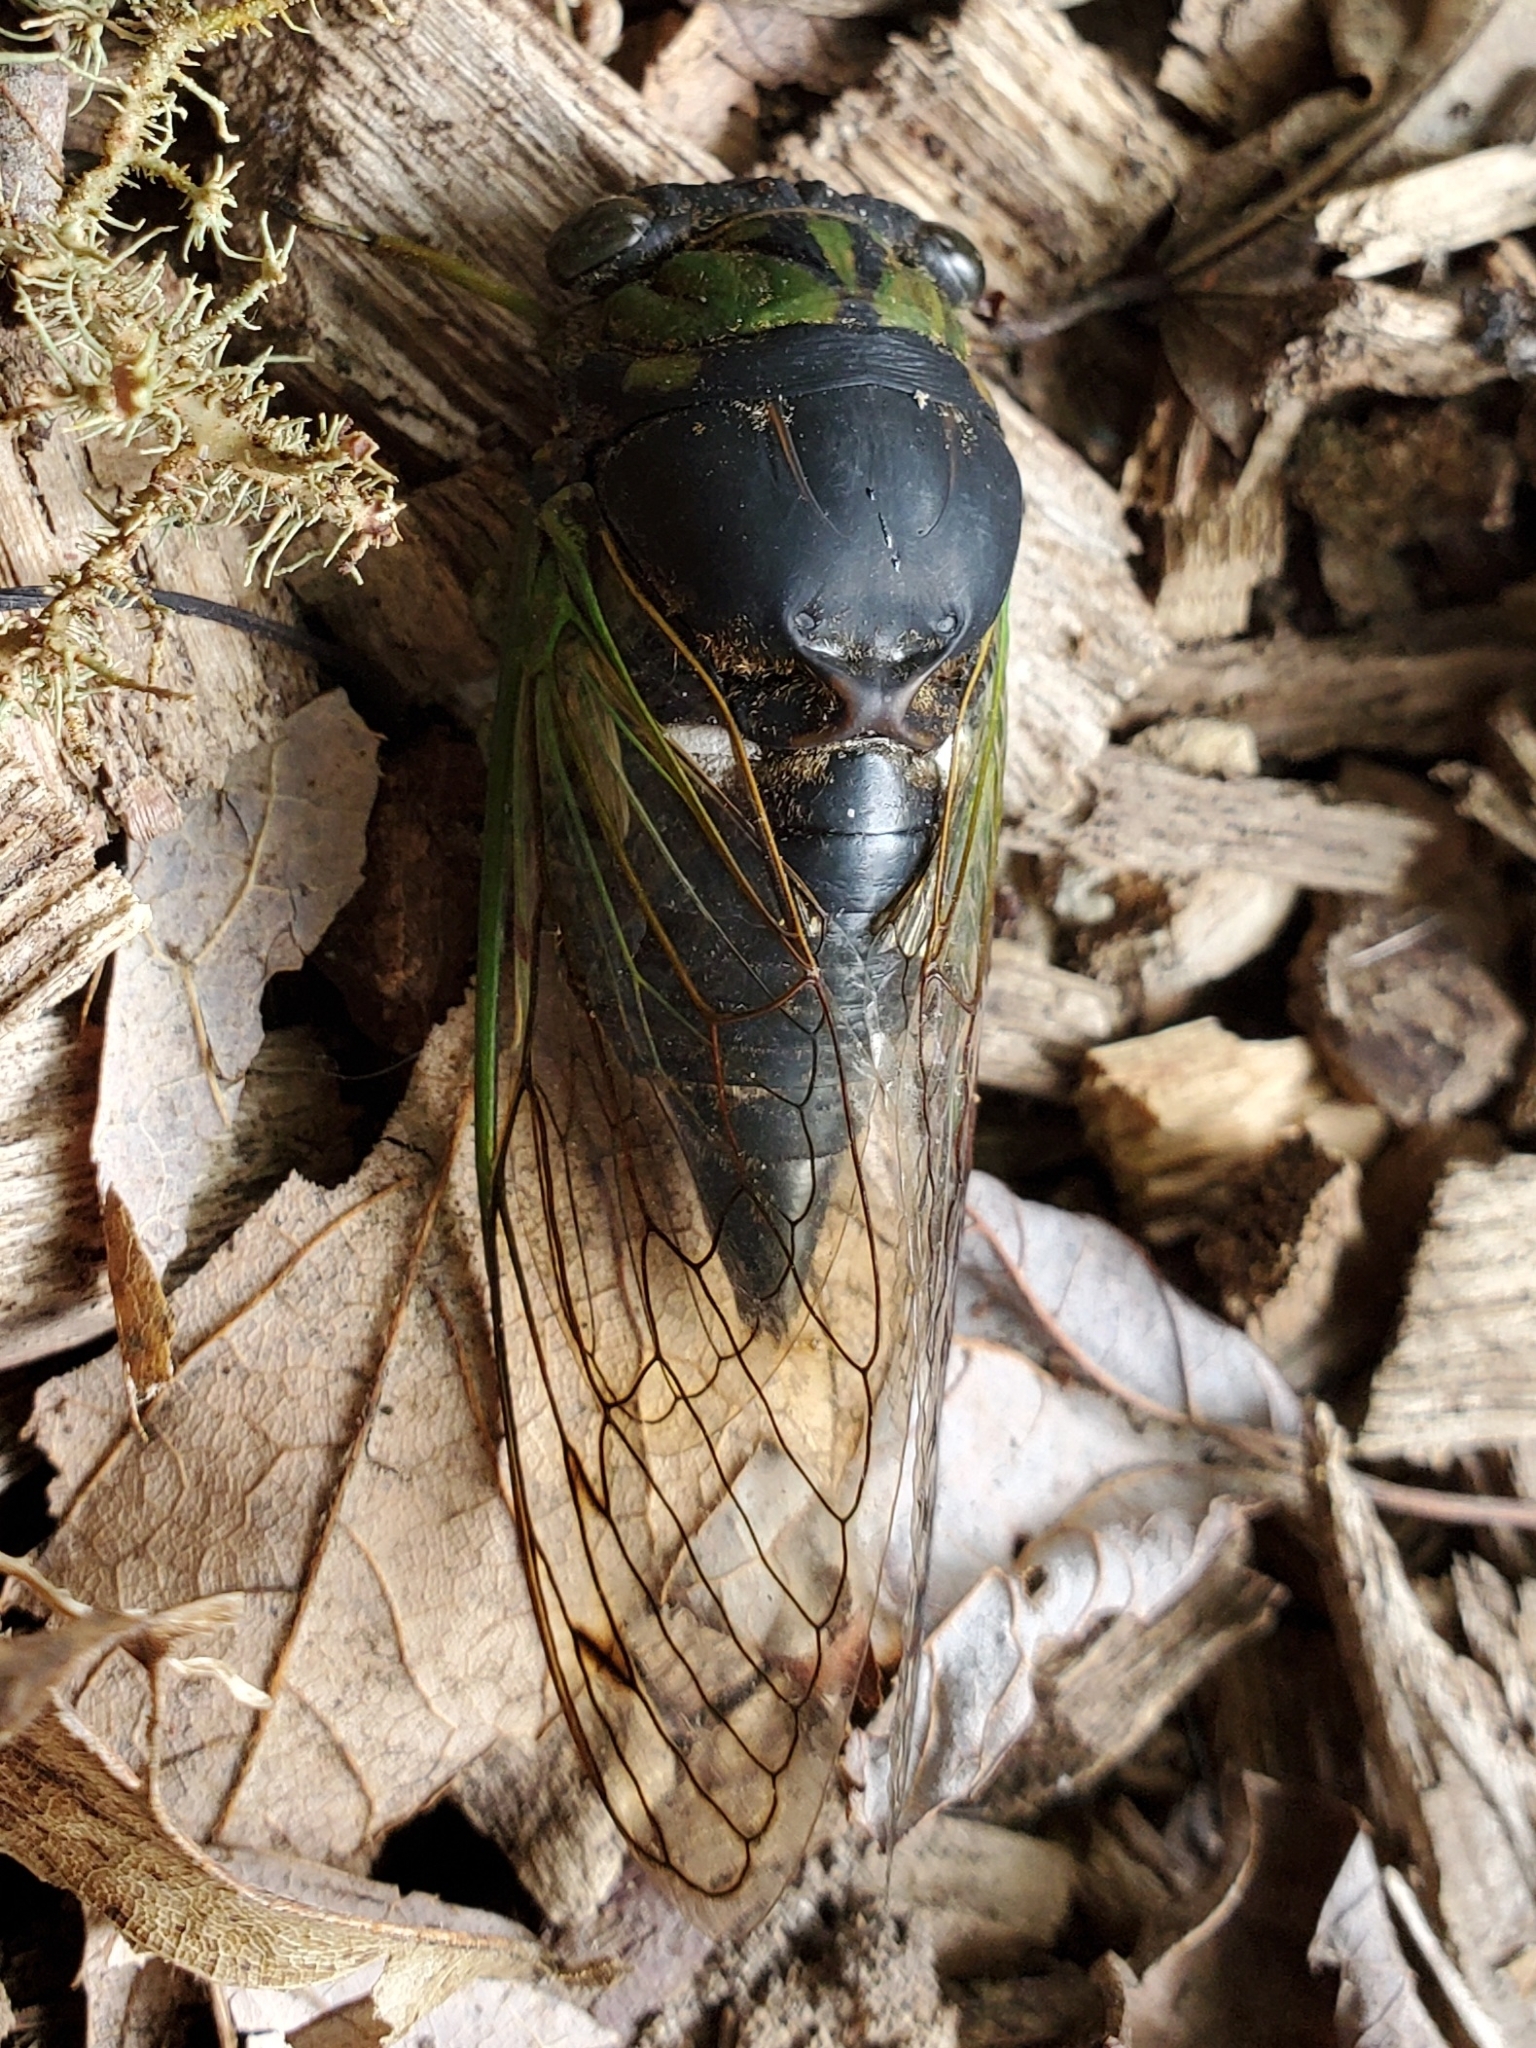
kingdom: Animalia
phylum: Arthropoda
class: Insecta
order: Hemiptera
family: Cicadidae
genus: Neotibicen
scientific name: Neotibicen tibicen
